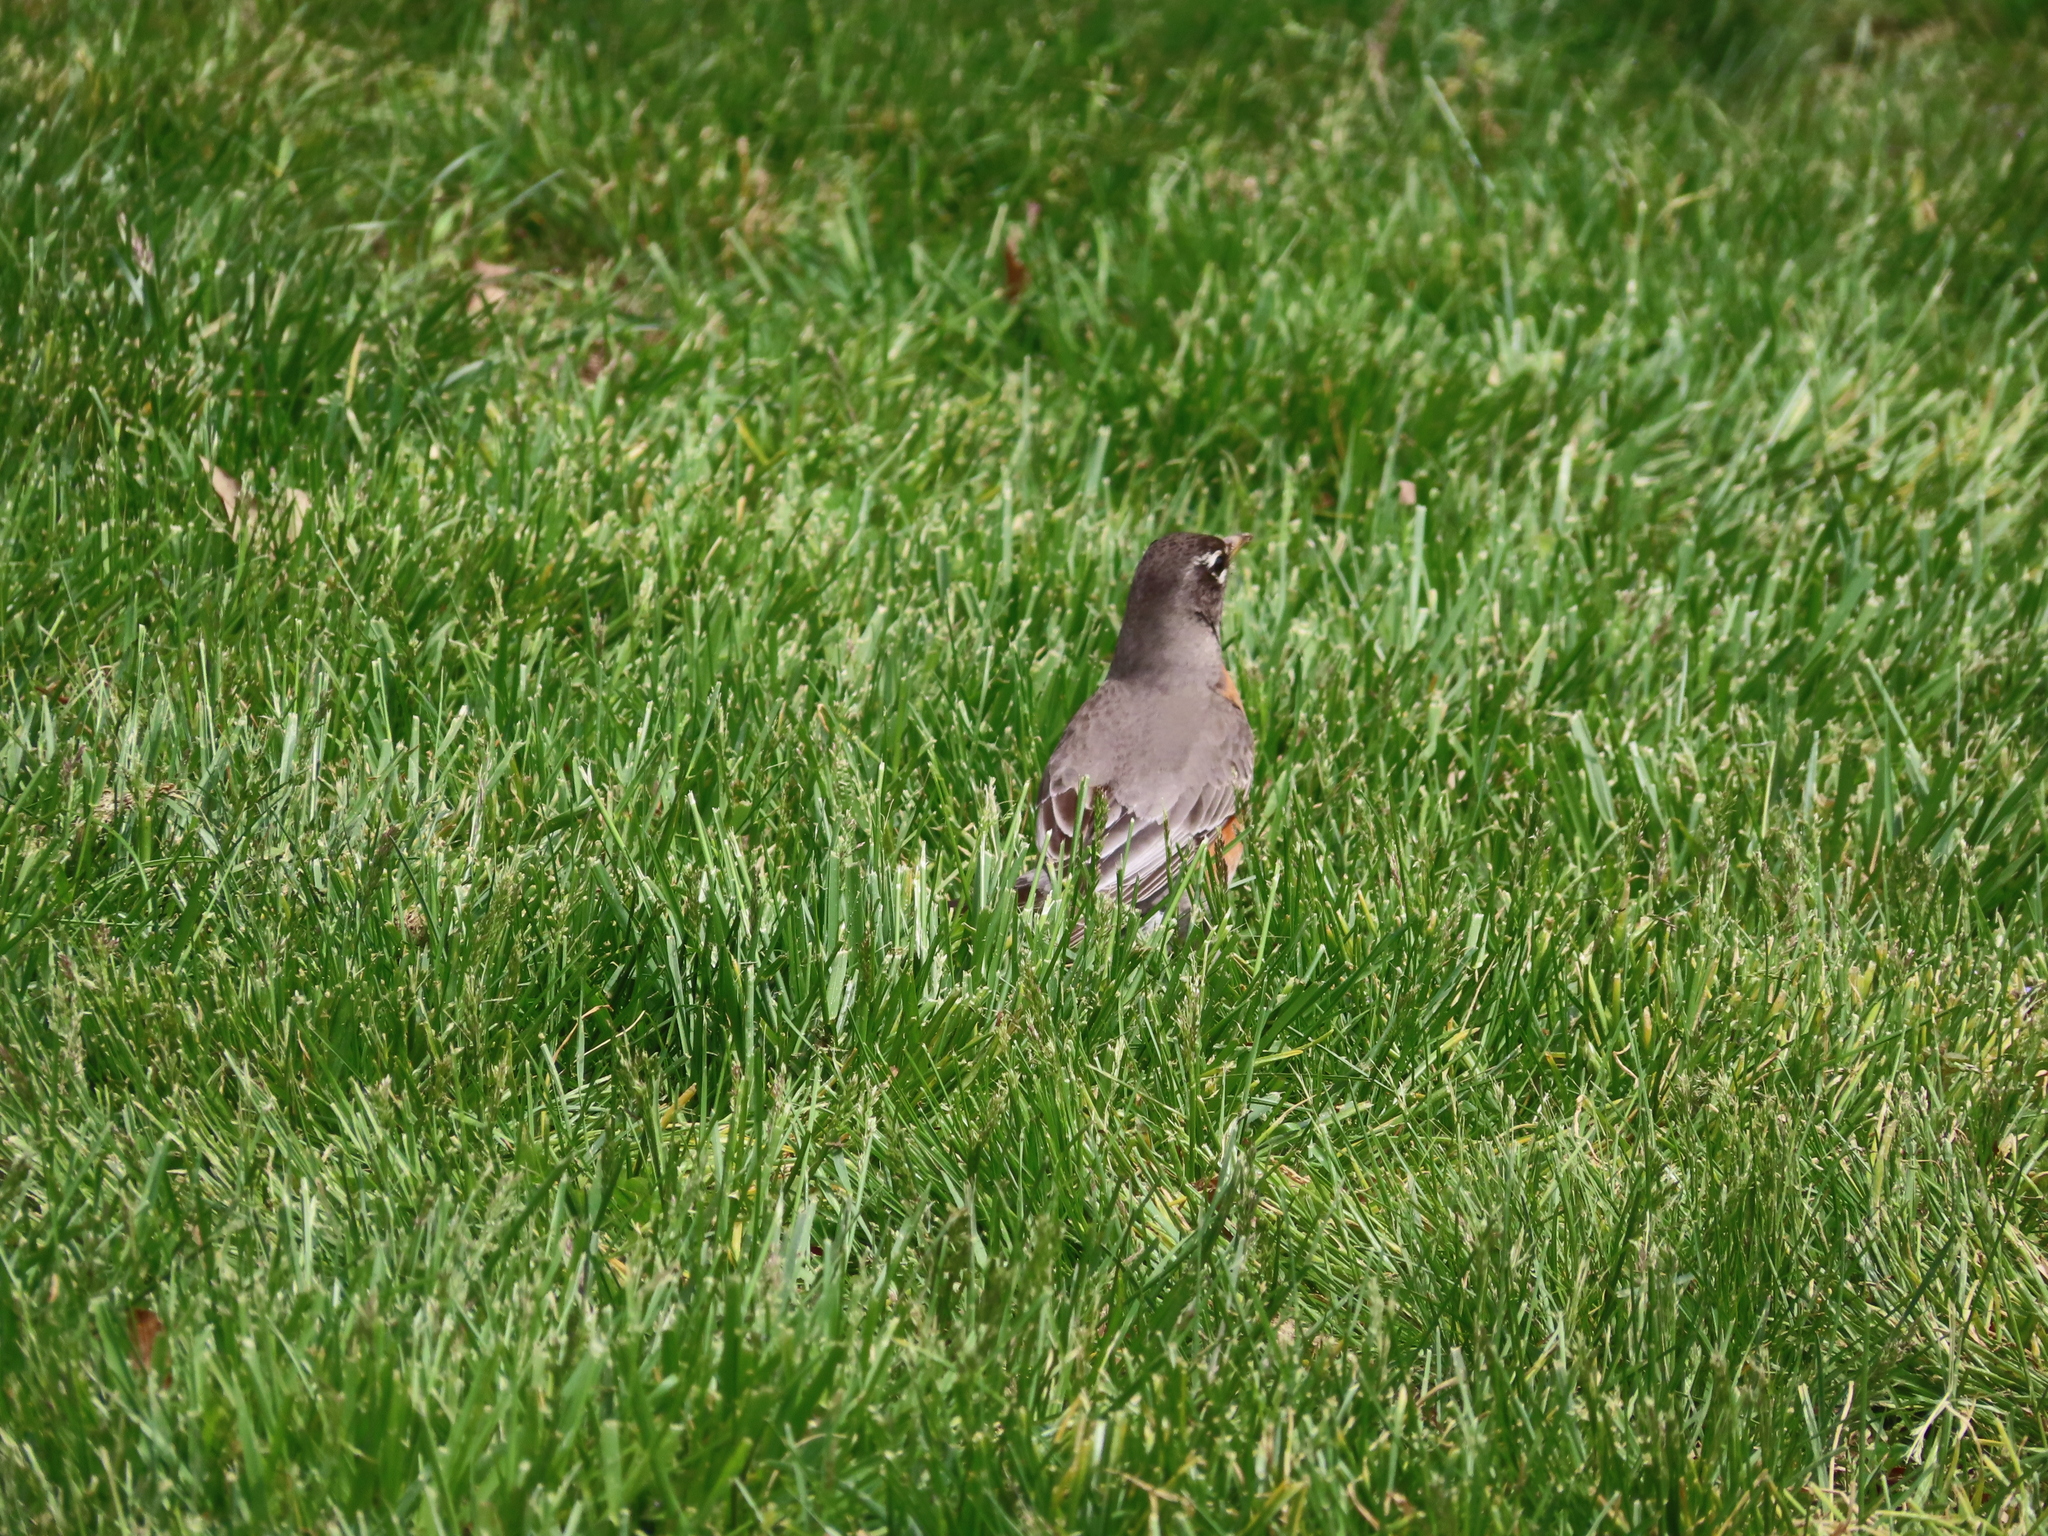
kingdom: Animalia
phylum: Chordata
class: Aves
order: Passeriformes
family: Turdidae
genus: Turdus
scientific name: Turdus migratorius
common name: American robin
